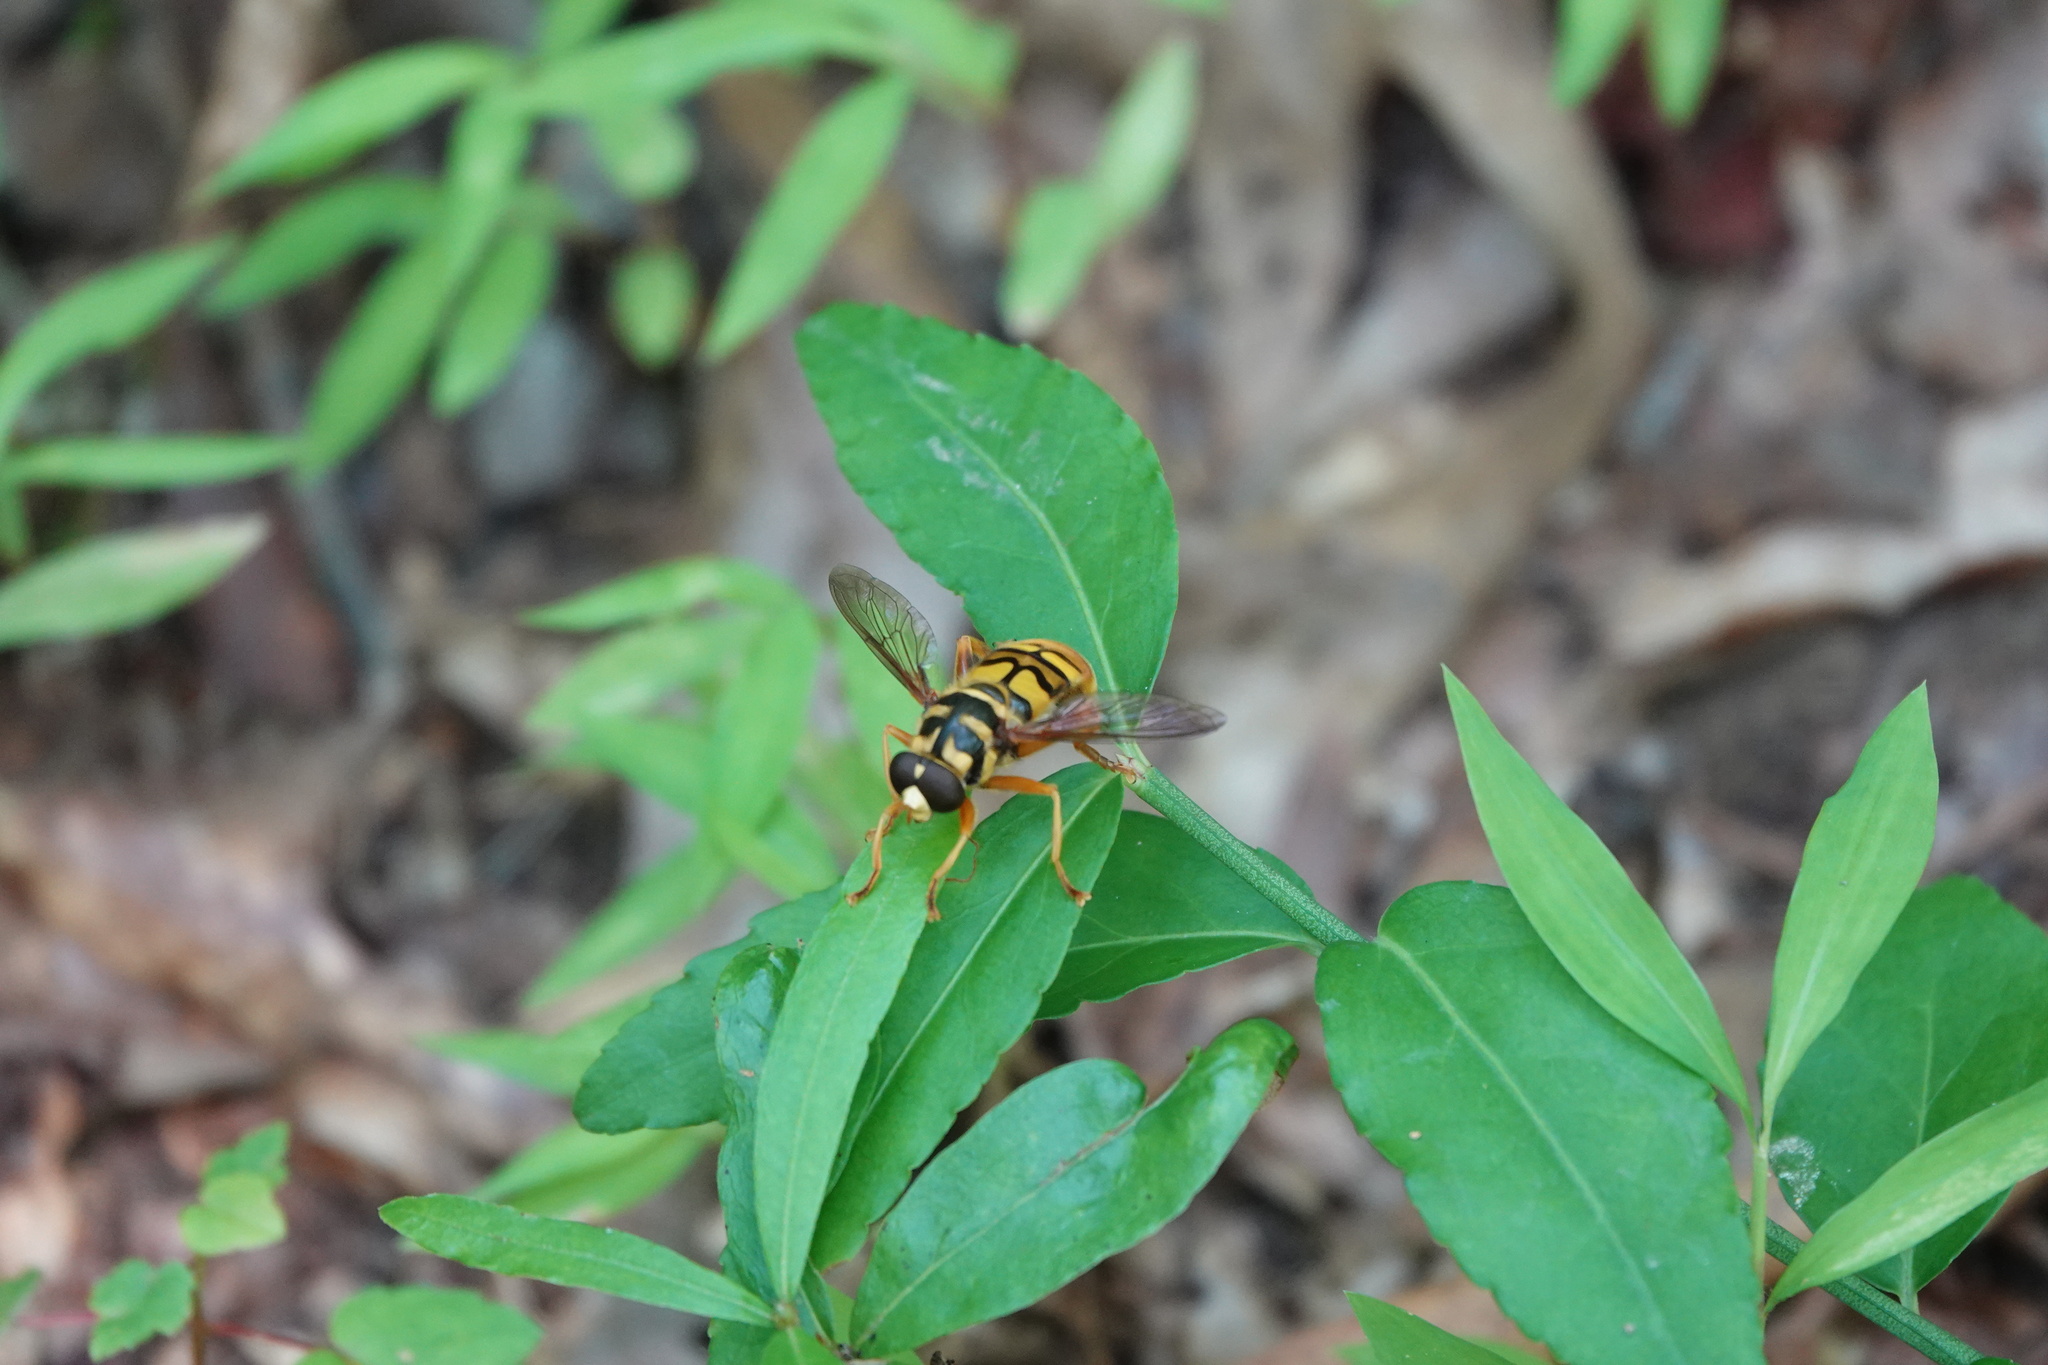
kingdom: Animalia
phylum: Arthropoda
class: Insecta
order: Diptera
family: Syrphidae
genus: Milesia
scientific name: Milesia virginiensis
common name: Virginia giant
